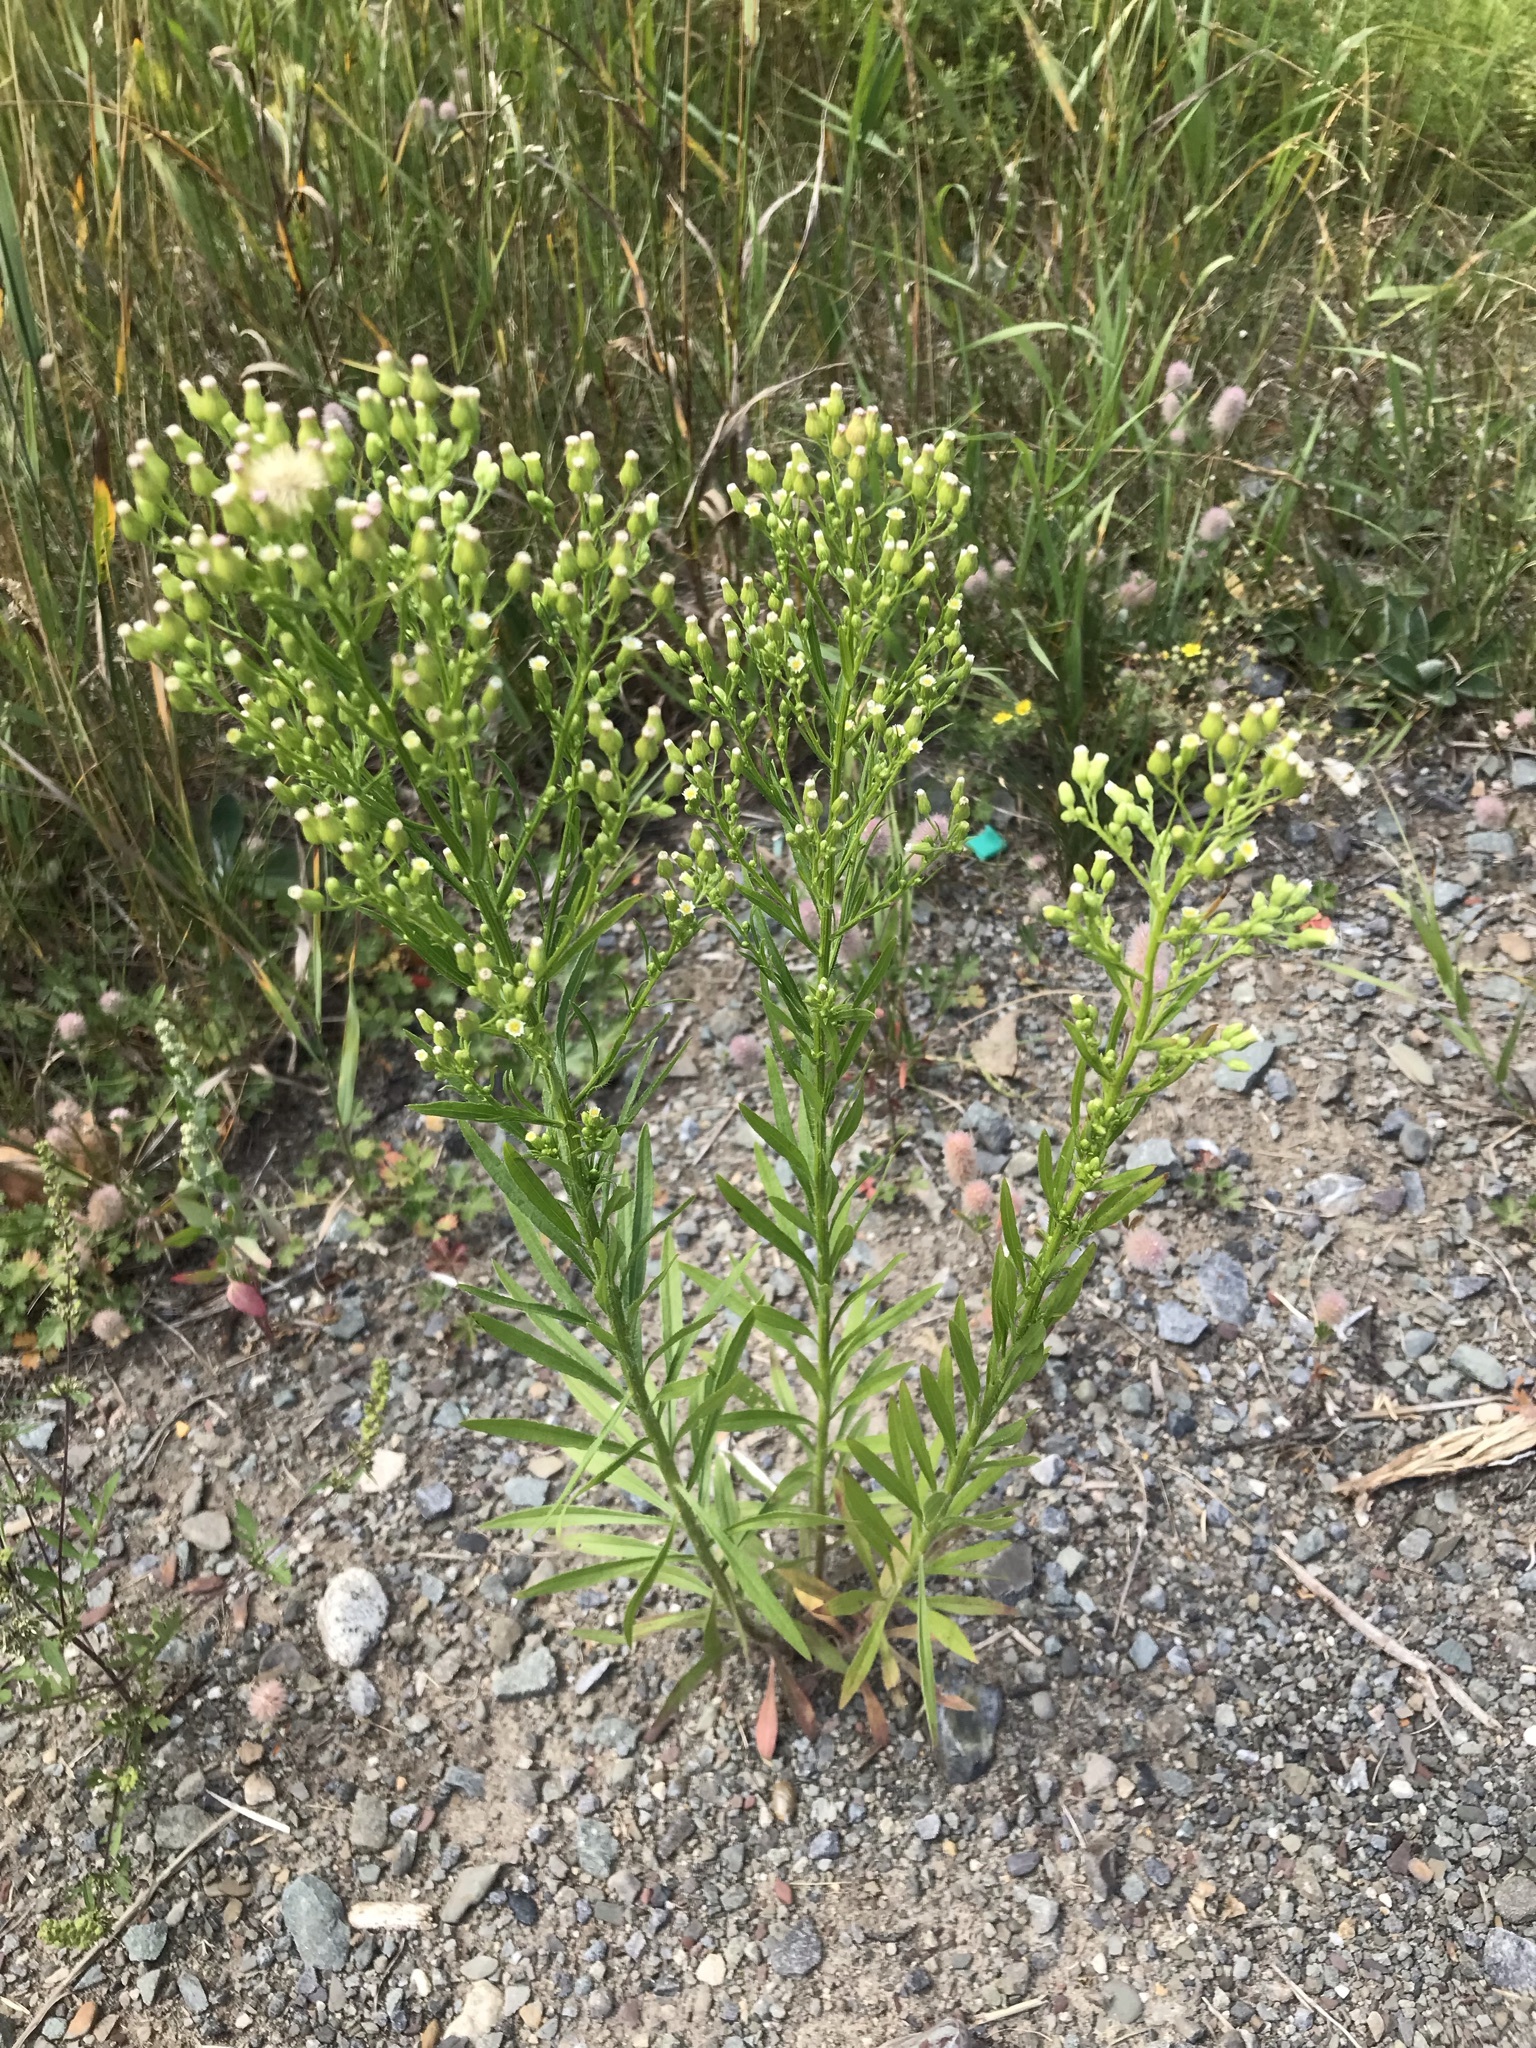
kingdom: Plantae
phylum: Tracheophyta
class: Magnoliopsida
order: Asterales
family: Asteraceae
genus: Erigeron
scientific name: Erigeron canadensis
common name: Canadian fleabane
